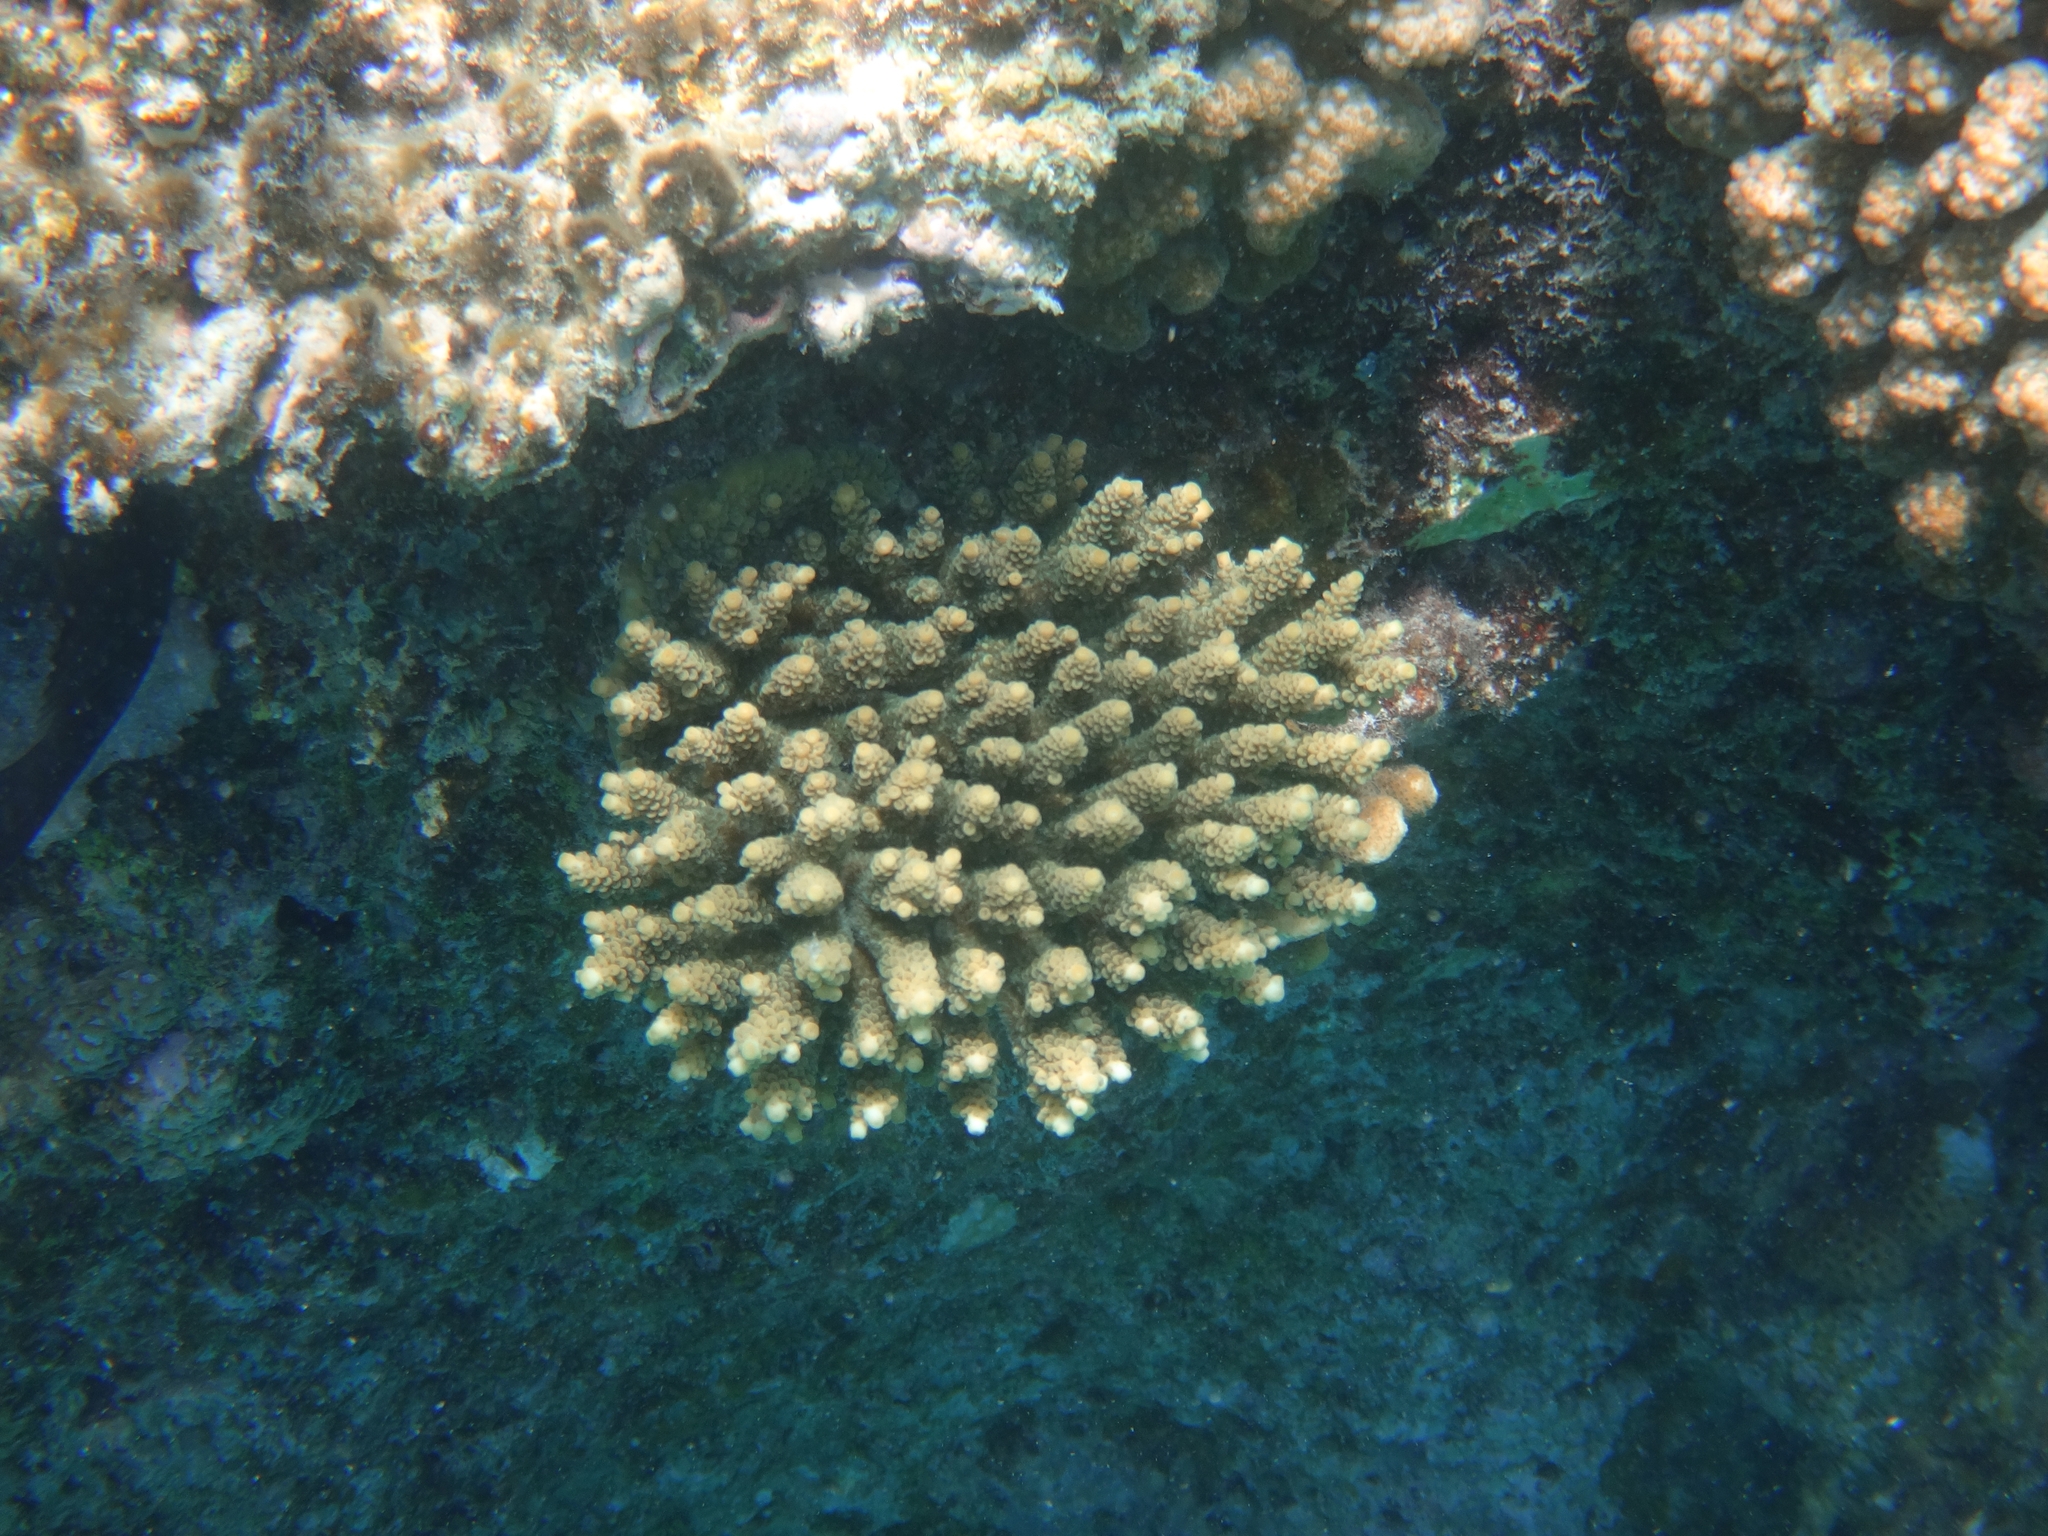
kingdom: Animalia
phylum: Cnidaria
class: Anthozoa
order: Scleractinia
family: Acroporidae
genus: Acropora
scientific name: Acropora
